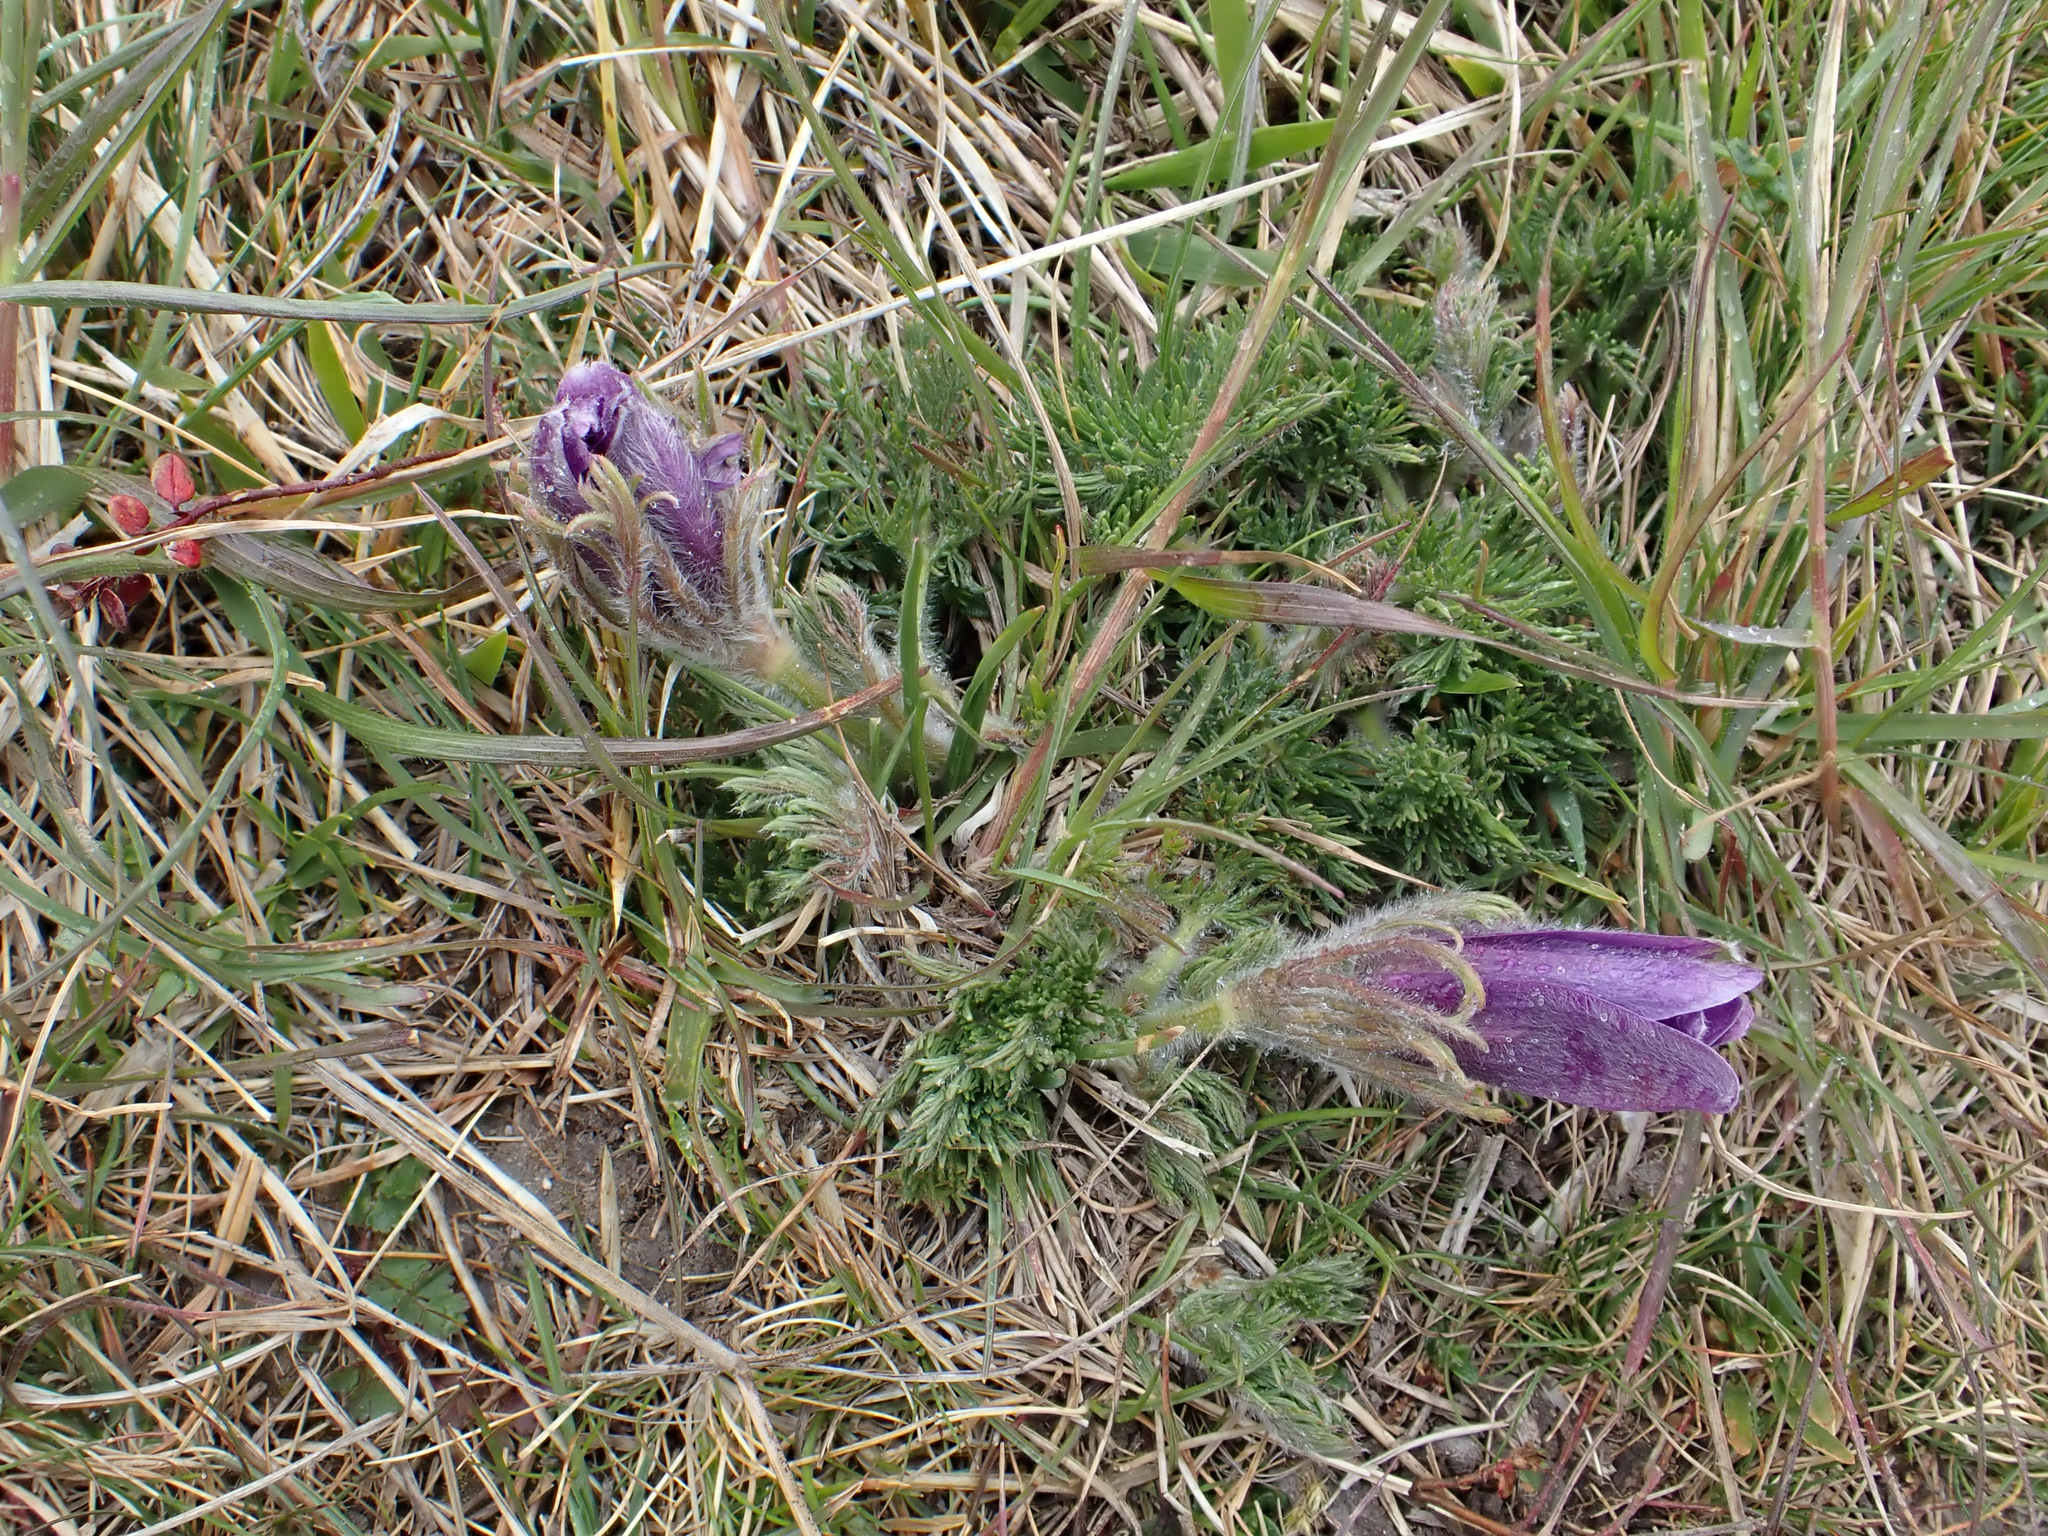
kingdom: Plantae
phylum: Tracheophyta
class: Magnoliopsida
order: Ranunculales
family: Ranunculaceae
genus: Pulsatilla
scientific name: Pulsatilla vulgaris
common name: Pasqueflower
